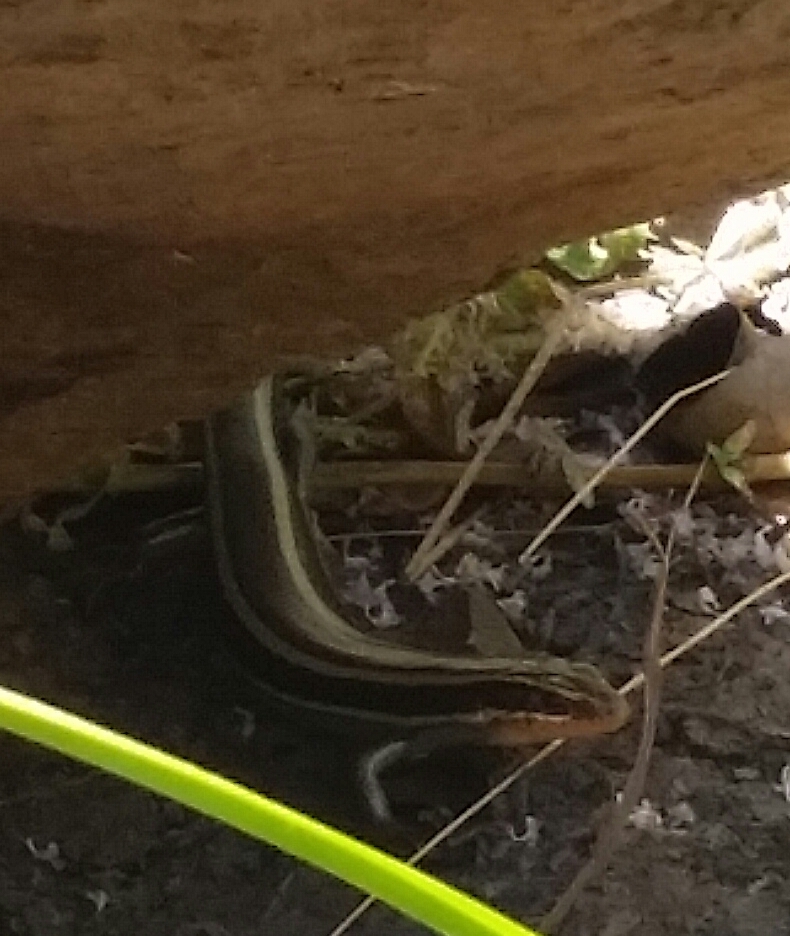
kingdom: Animalia
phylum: Chordata
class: Squamata
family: Scincidae
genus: Plestiodon
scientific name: Plestiodon skiltonianus
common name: Coronado island skink [interparietalis]
